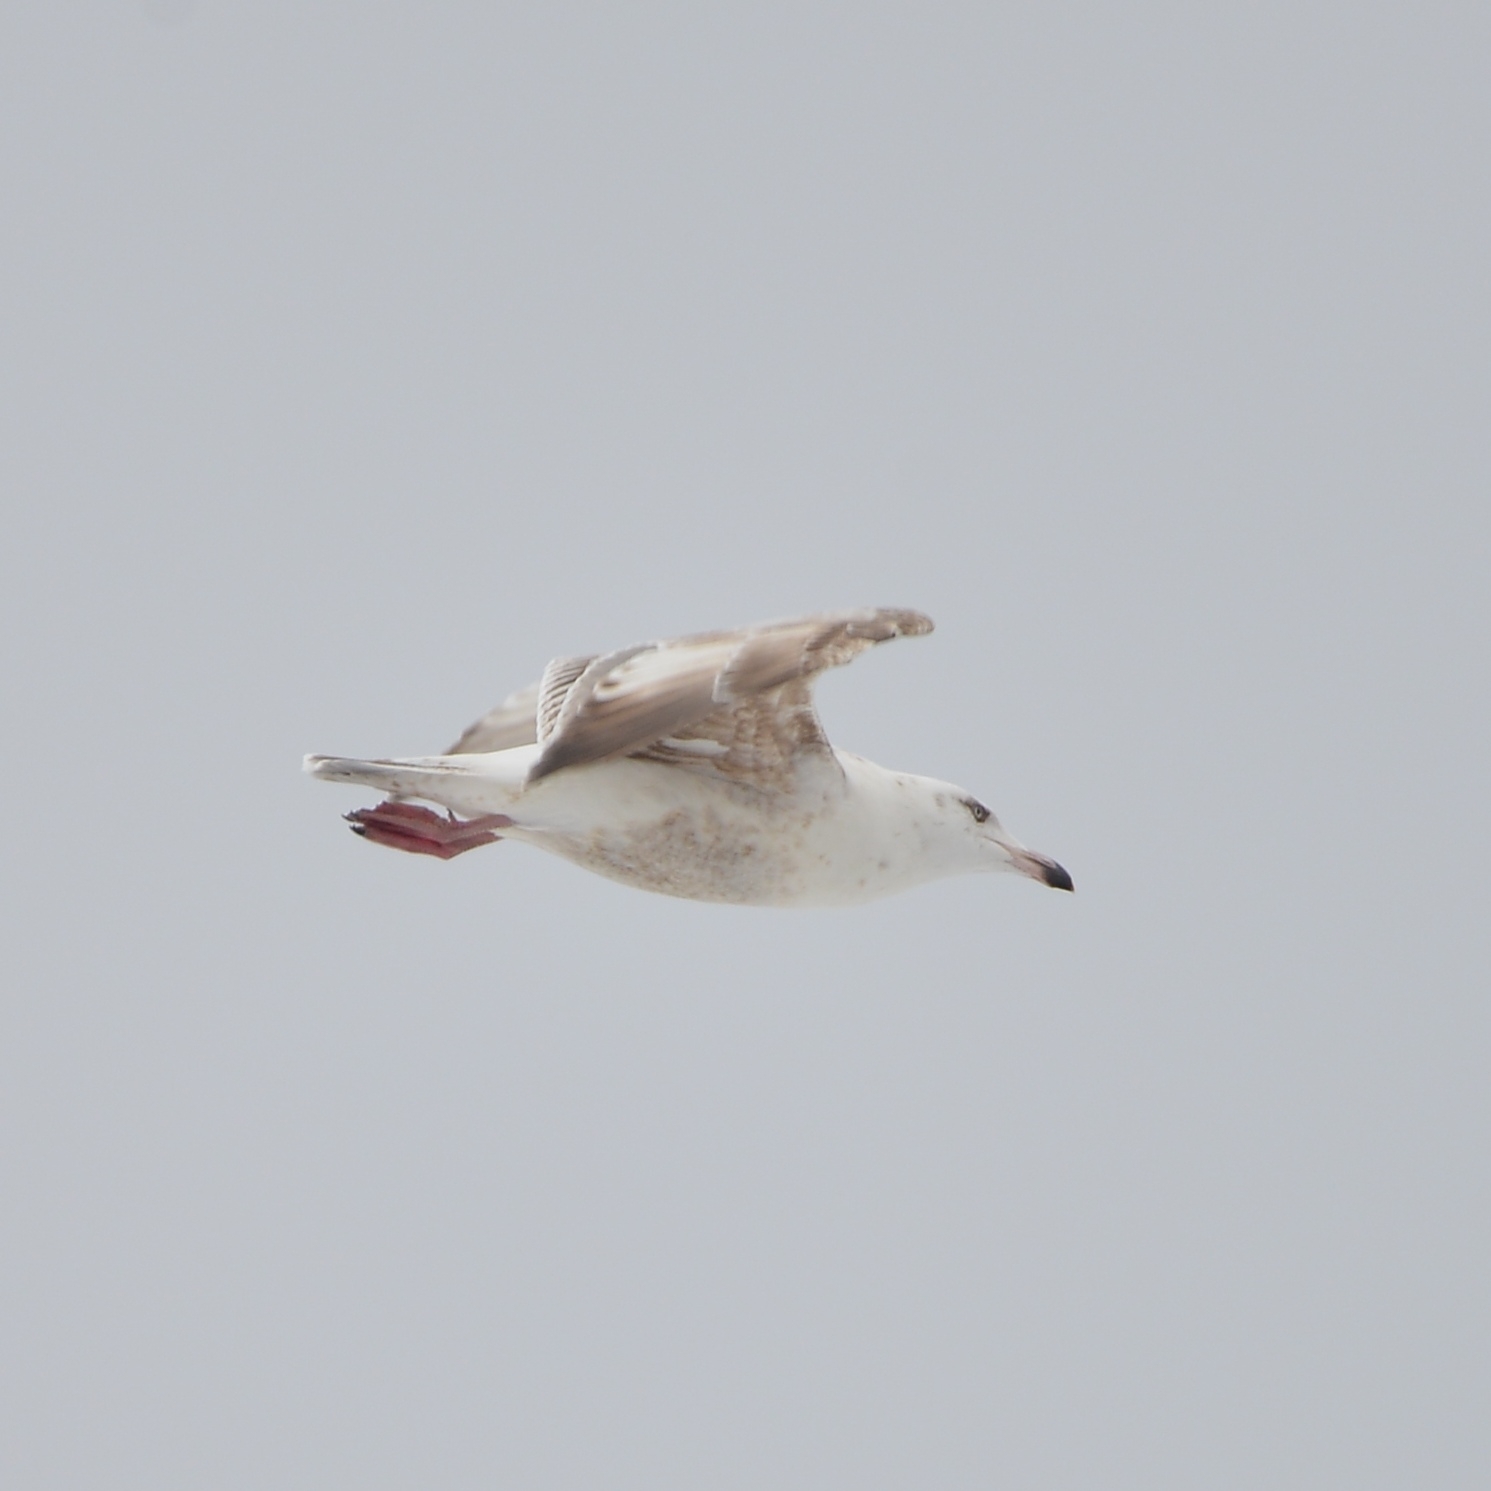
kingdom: Animalia
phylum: Chordata
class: Aves
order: Charadriiformes
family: Laridae
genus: Larus
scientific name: Larus hyperboreus
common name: Glaucous gull
